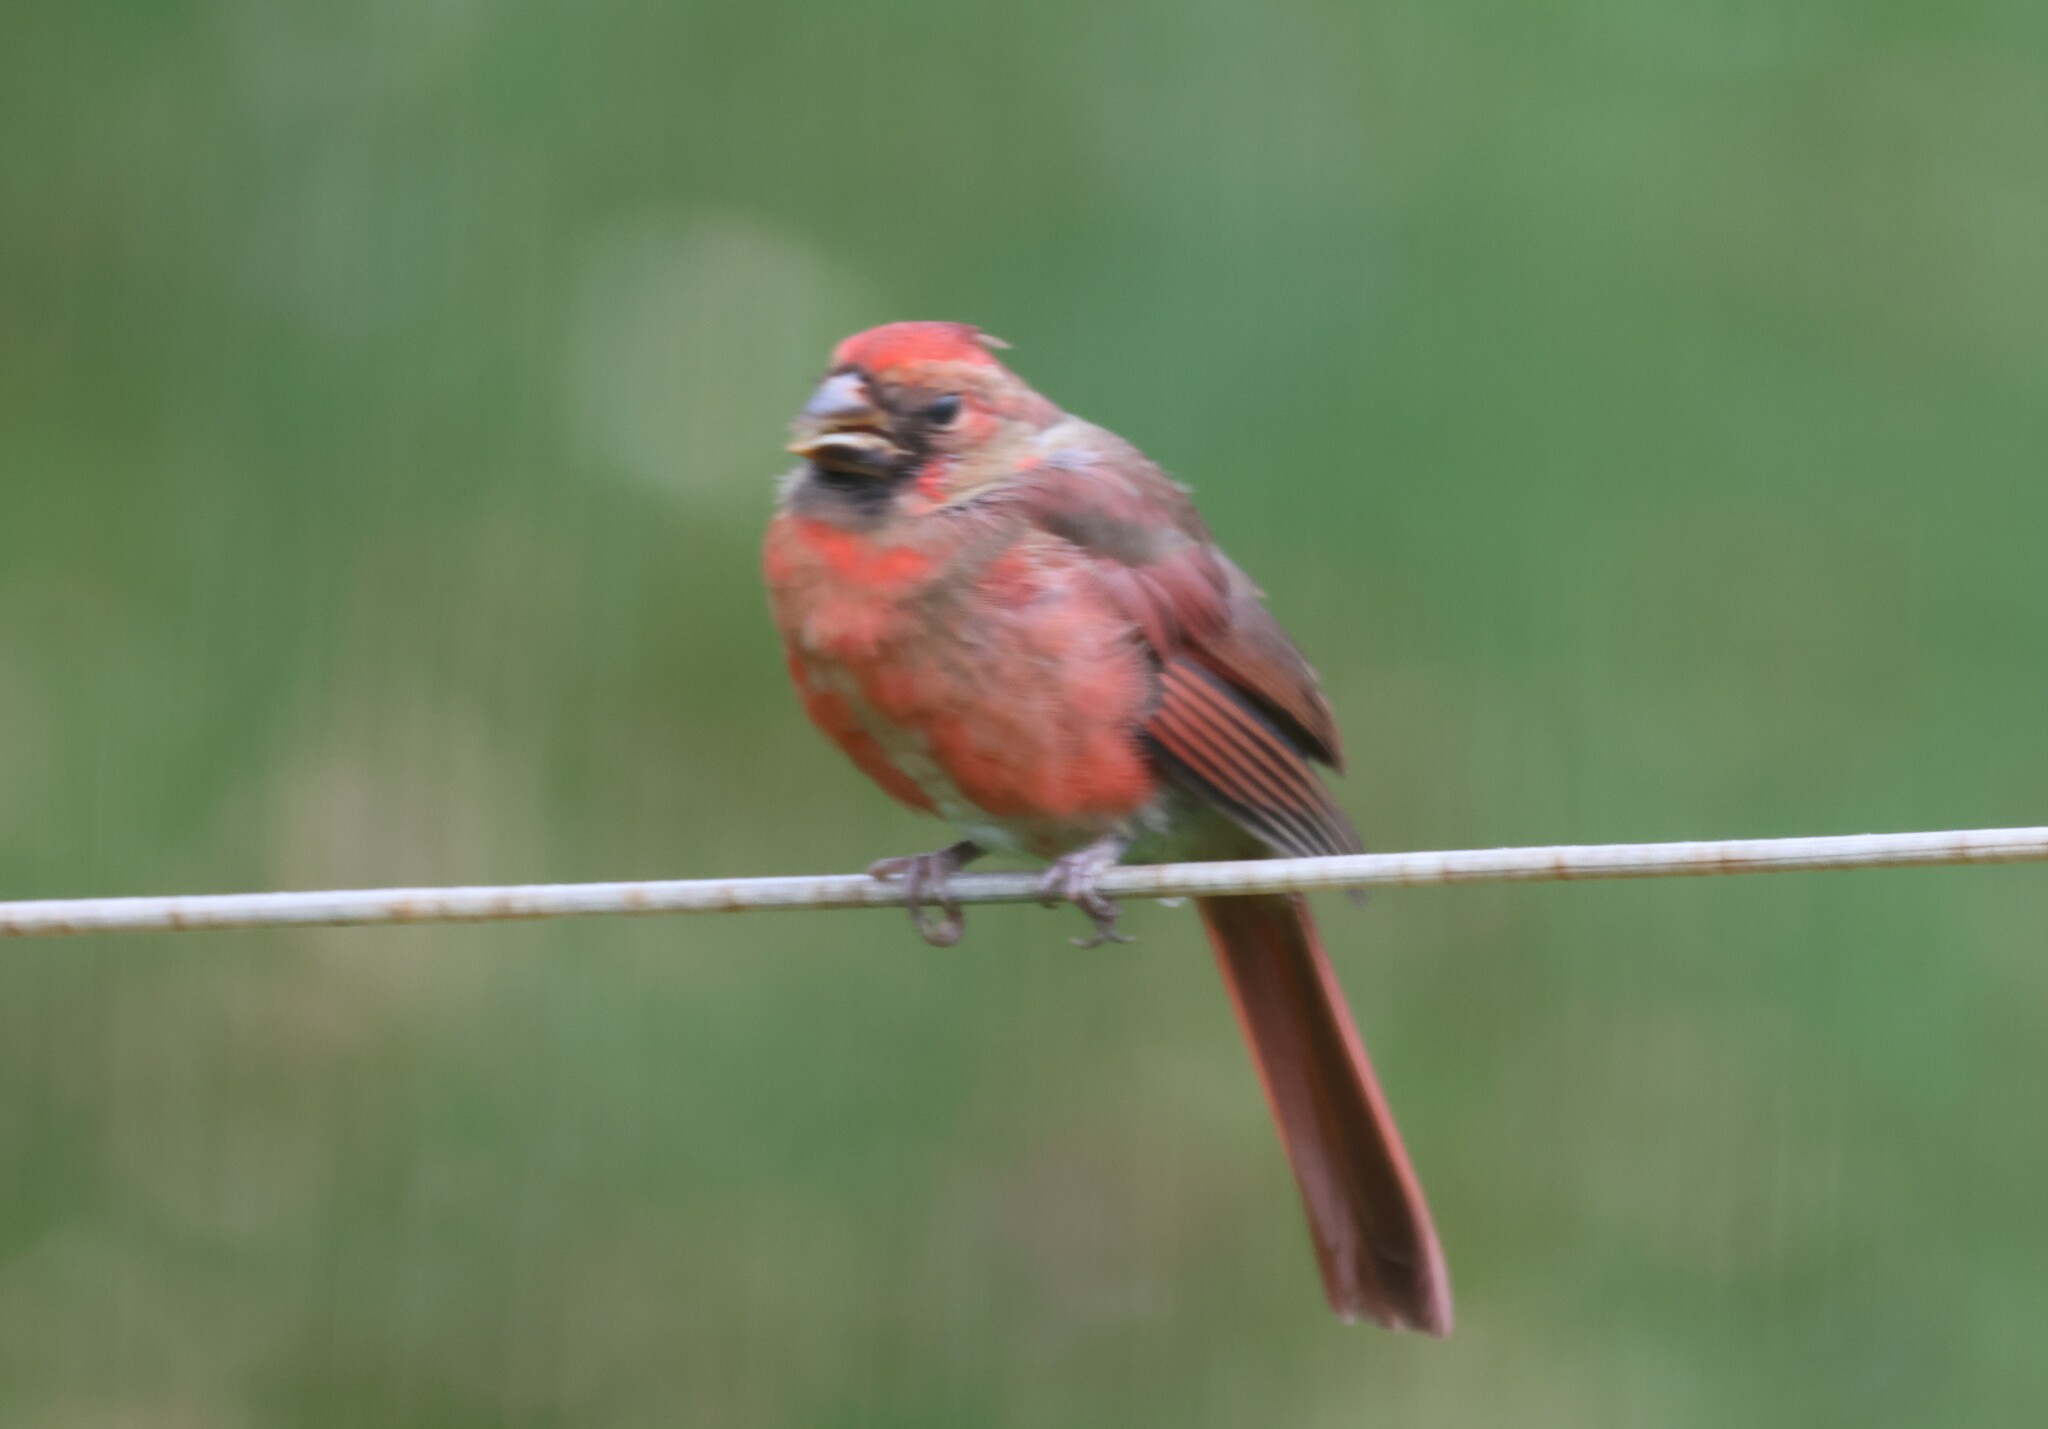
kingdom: Animalia
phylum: Chordata
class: Aves
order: Passeriformes
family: Cardinalidae
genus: Cardinalis
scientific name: Cardinalis cardinalis
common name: Northern cardinal
